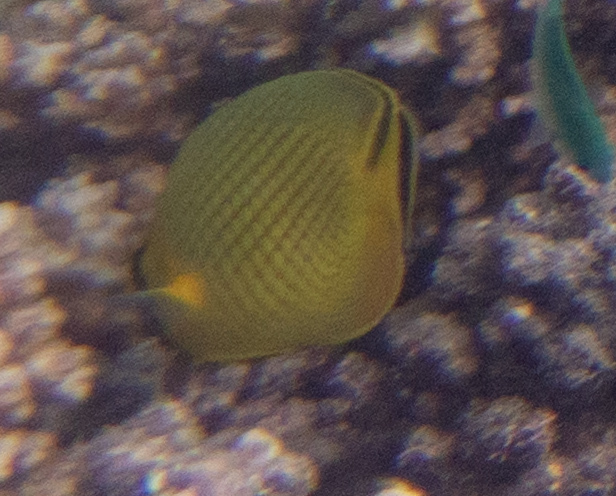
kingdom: Animalia
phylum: Chordata
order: Perciformes
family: Chaetodontidae
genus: Chaetodon
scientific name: Chaetodon rafflesii
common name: Latticed butterflyfish
